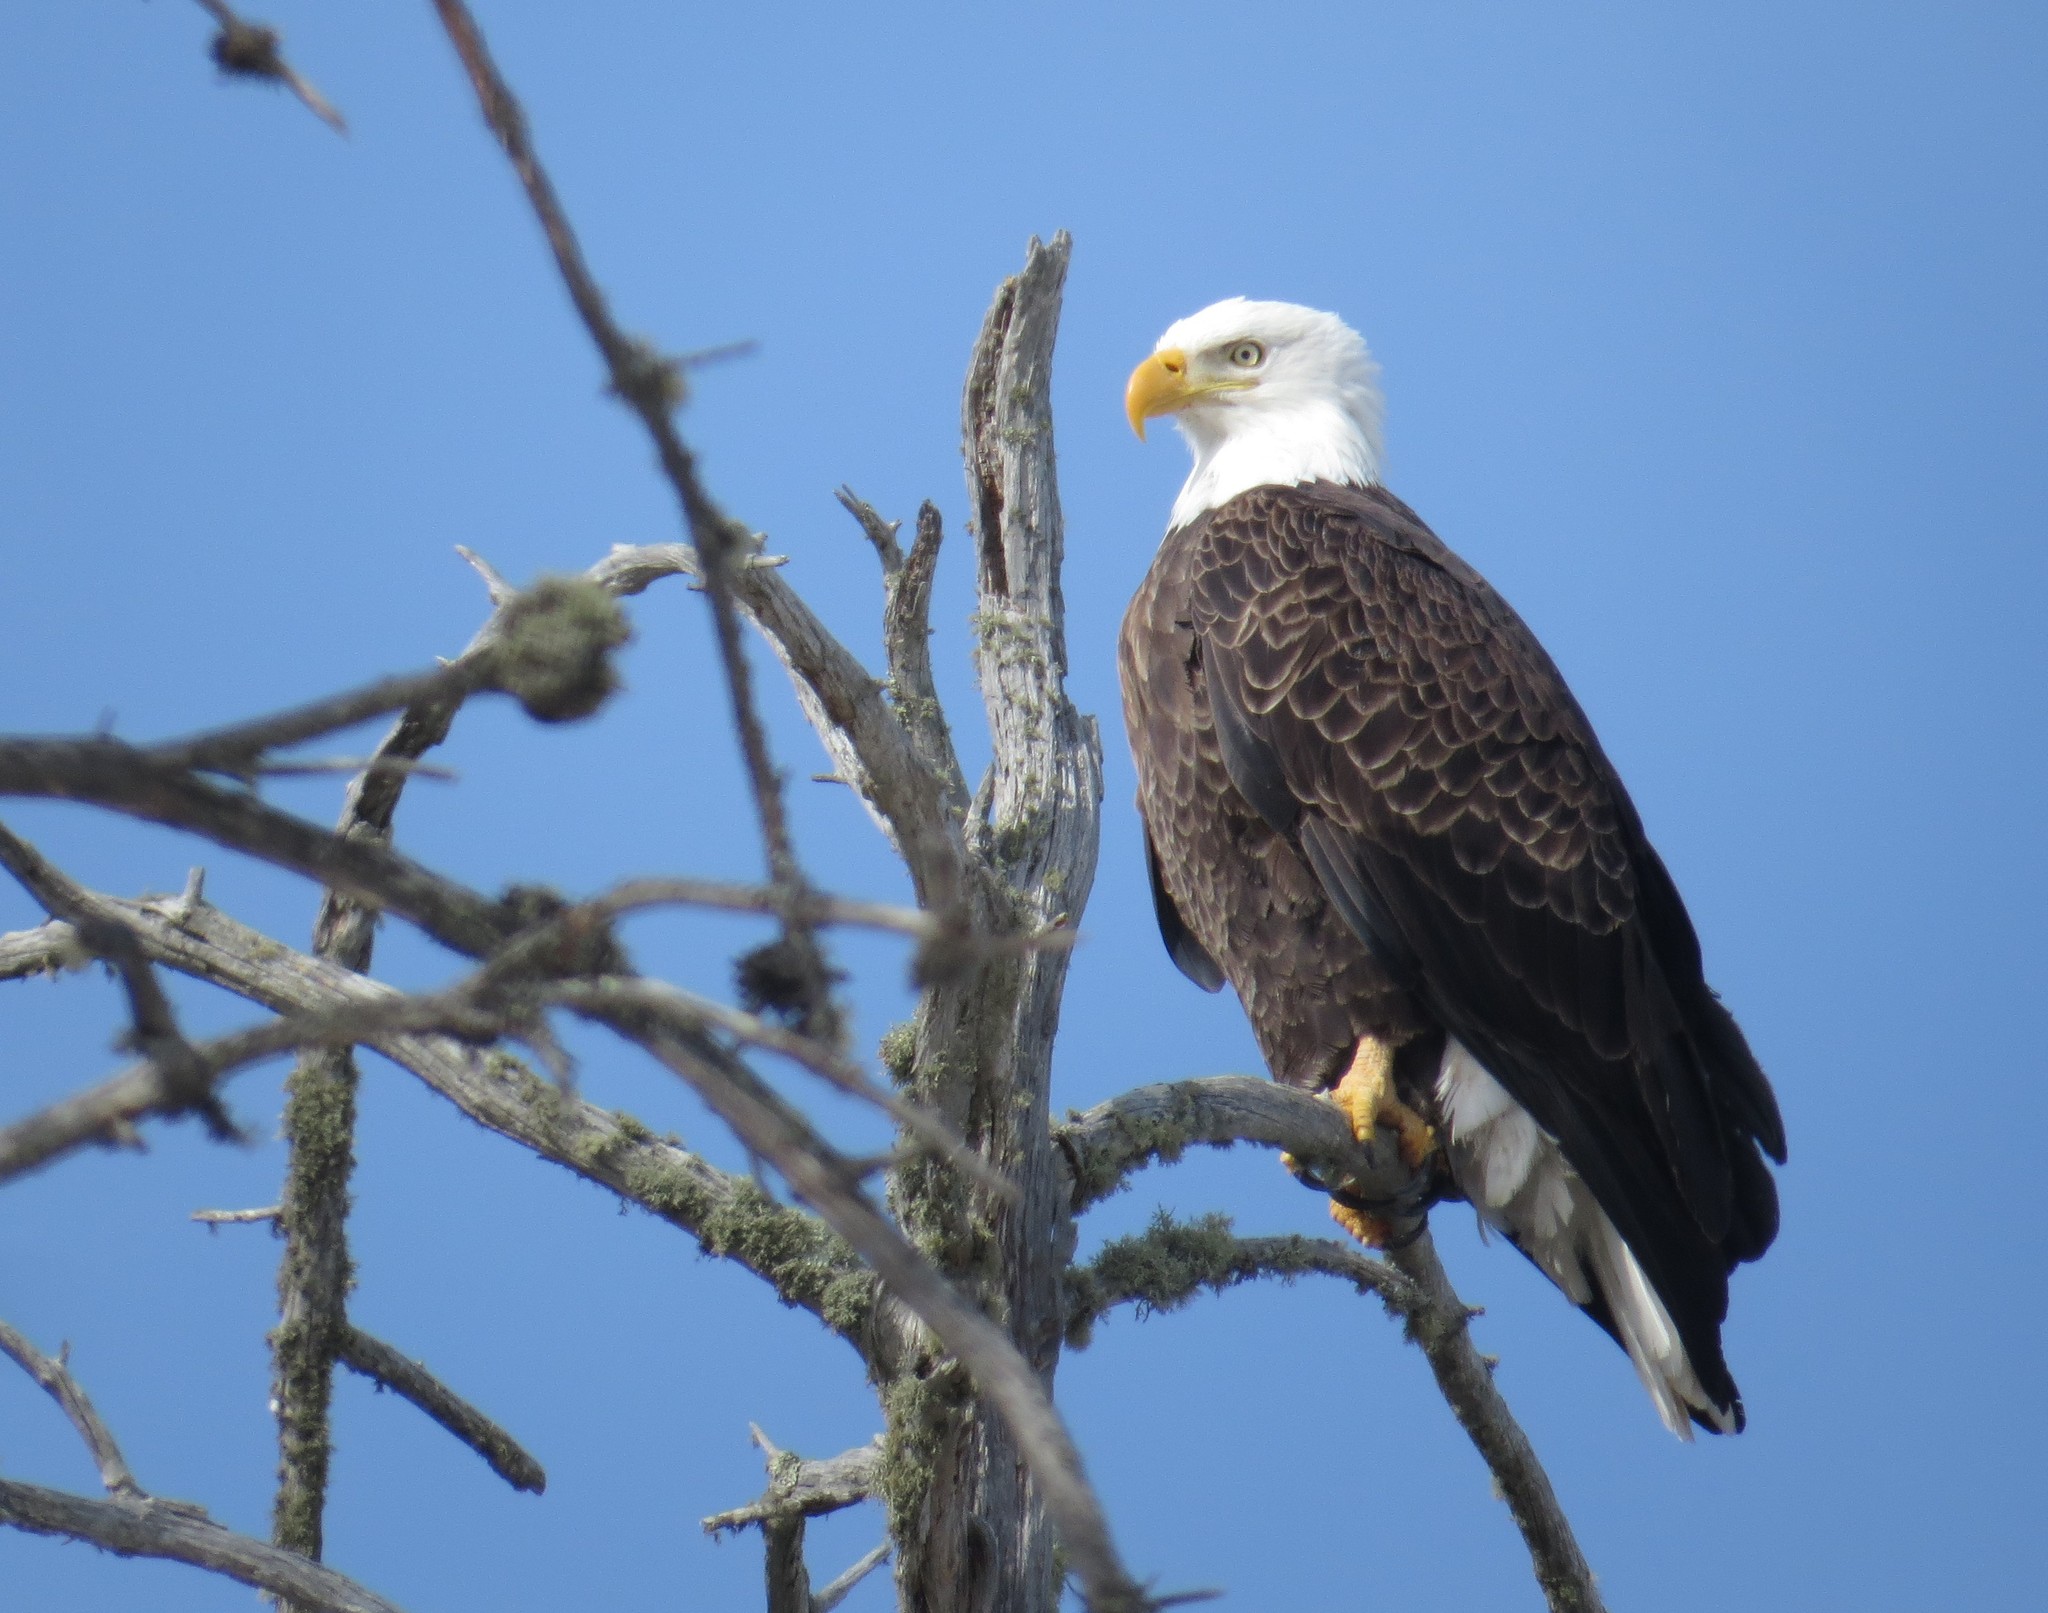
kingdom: Animalia
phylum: Chordata
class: Aves
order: Accipitriformes
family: Accipitridae
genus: Haliaeetus
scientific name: Haliaeetus leucocephalus
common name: Bald eagle
